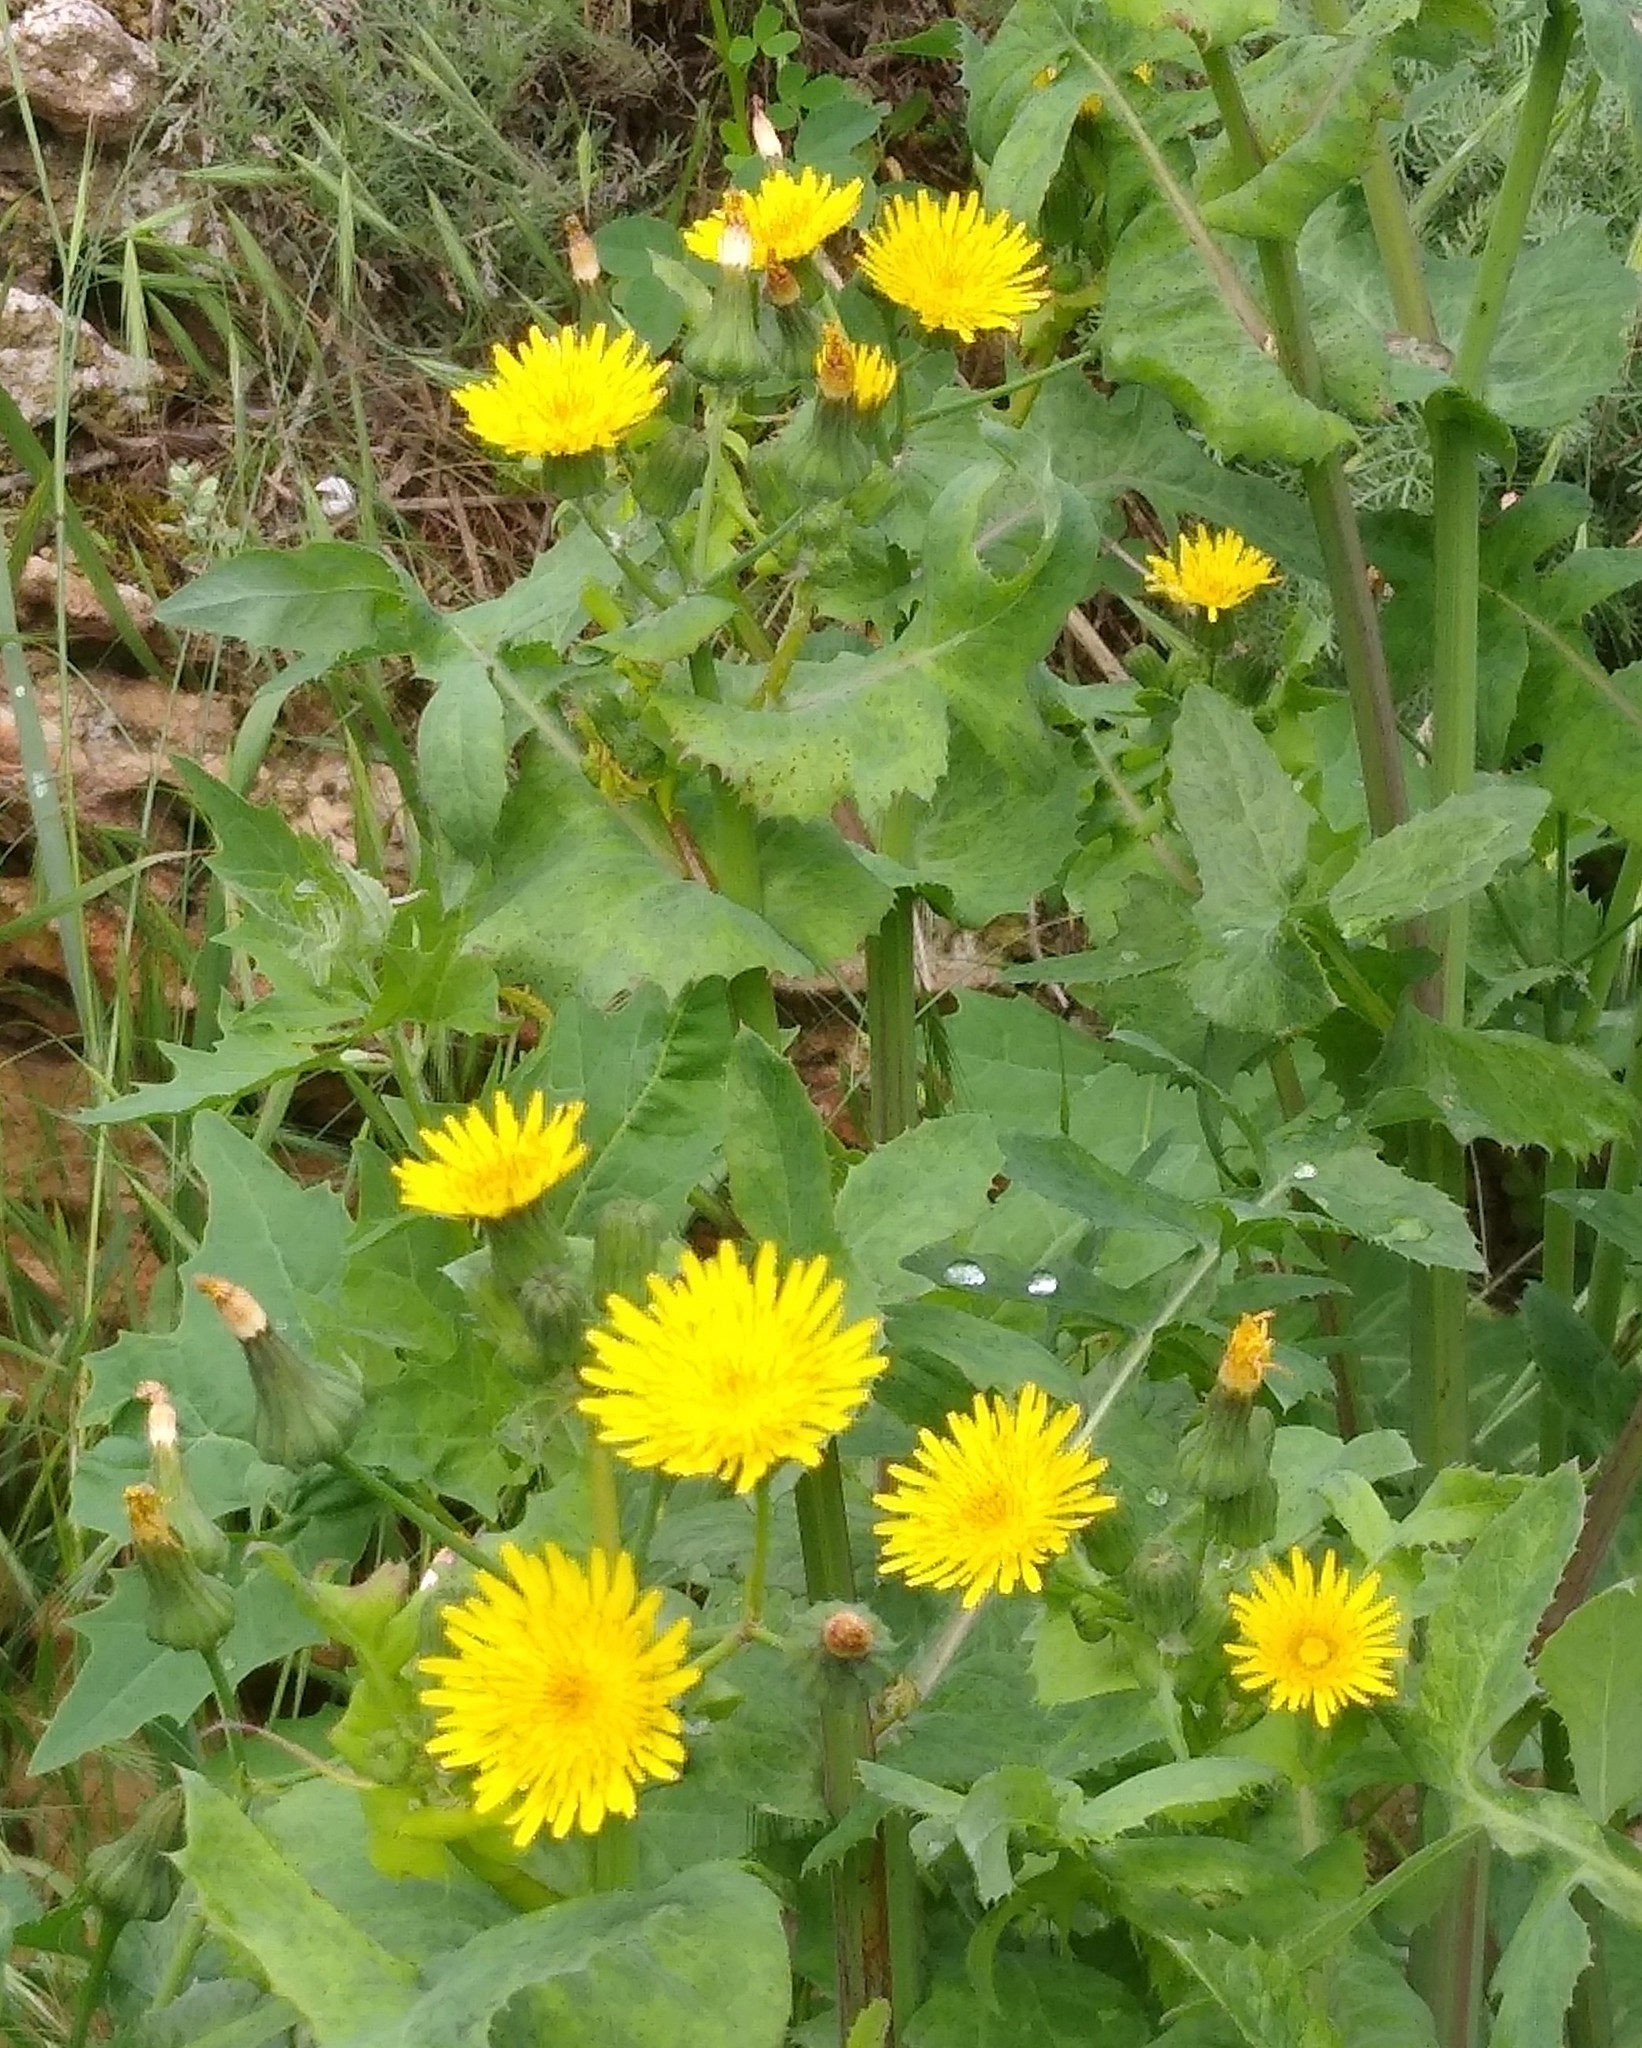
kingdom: Plantae
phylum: Tracheophyta
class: Magnoliopsida
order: Asterales
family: Asteraceae
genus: Sonchus
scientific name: Sonchus oleraceus
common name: Common sowthistle
